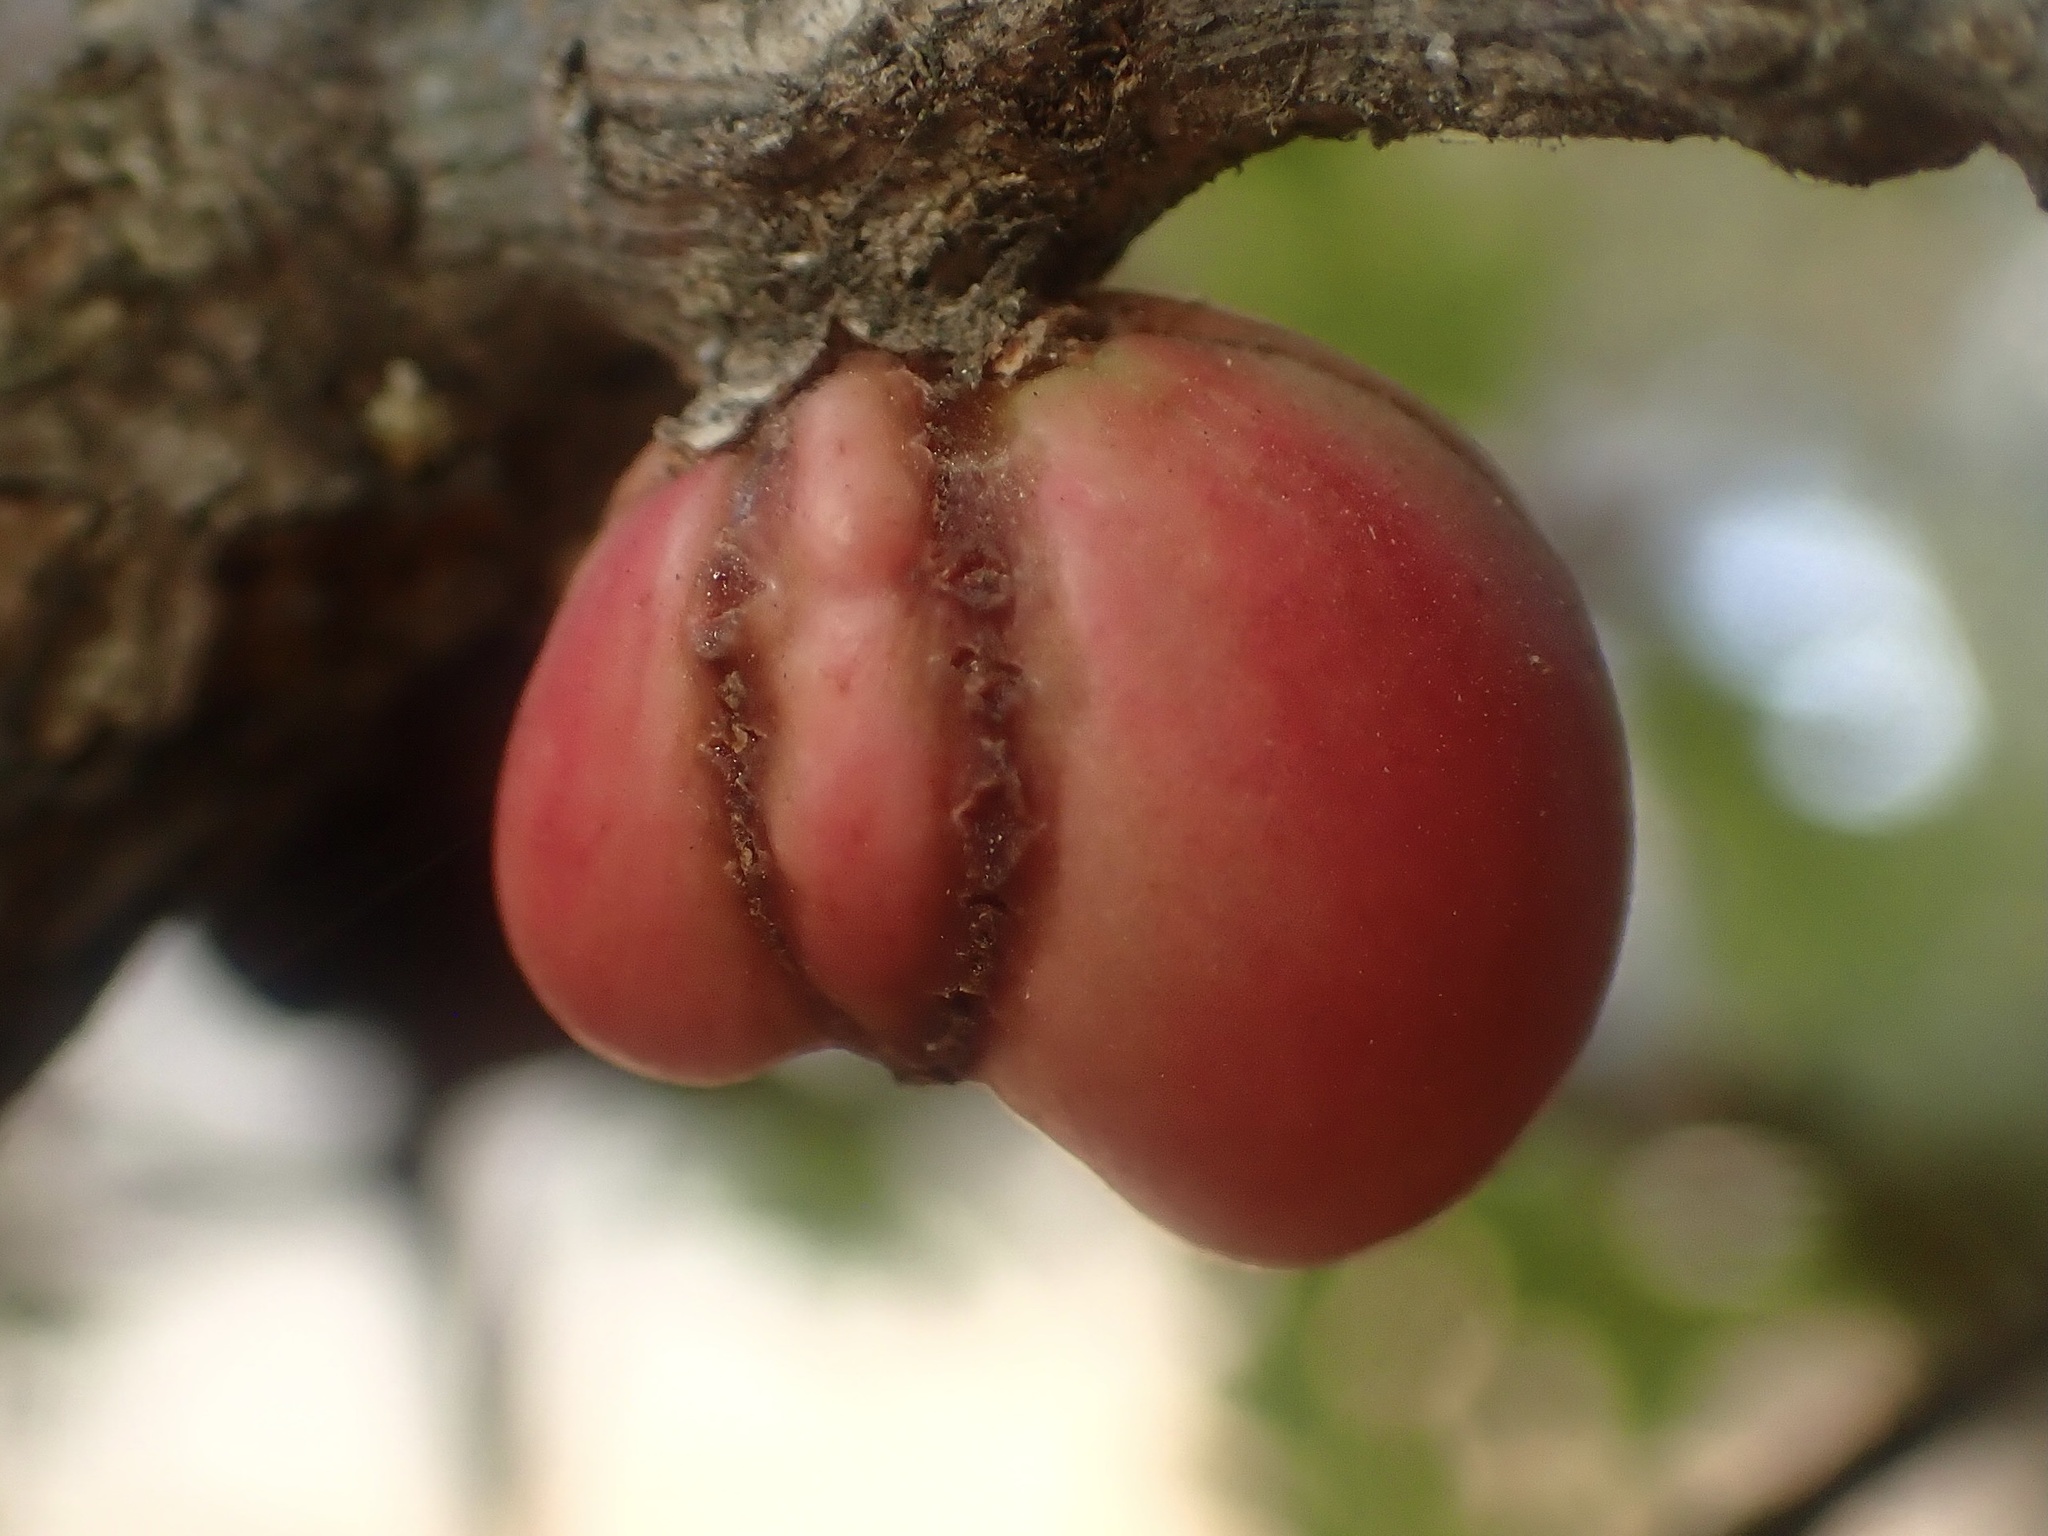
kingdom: Animalia
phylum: Arthropoda
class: Insecta
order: Hymenoptera
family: Cynipidae
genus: Andricus
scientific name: Andricus quercuscalifornicus
